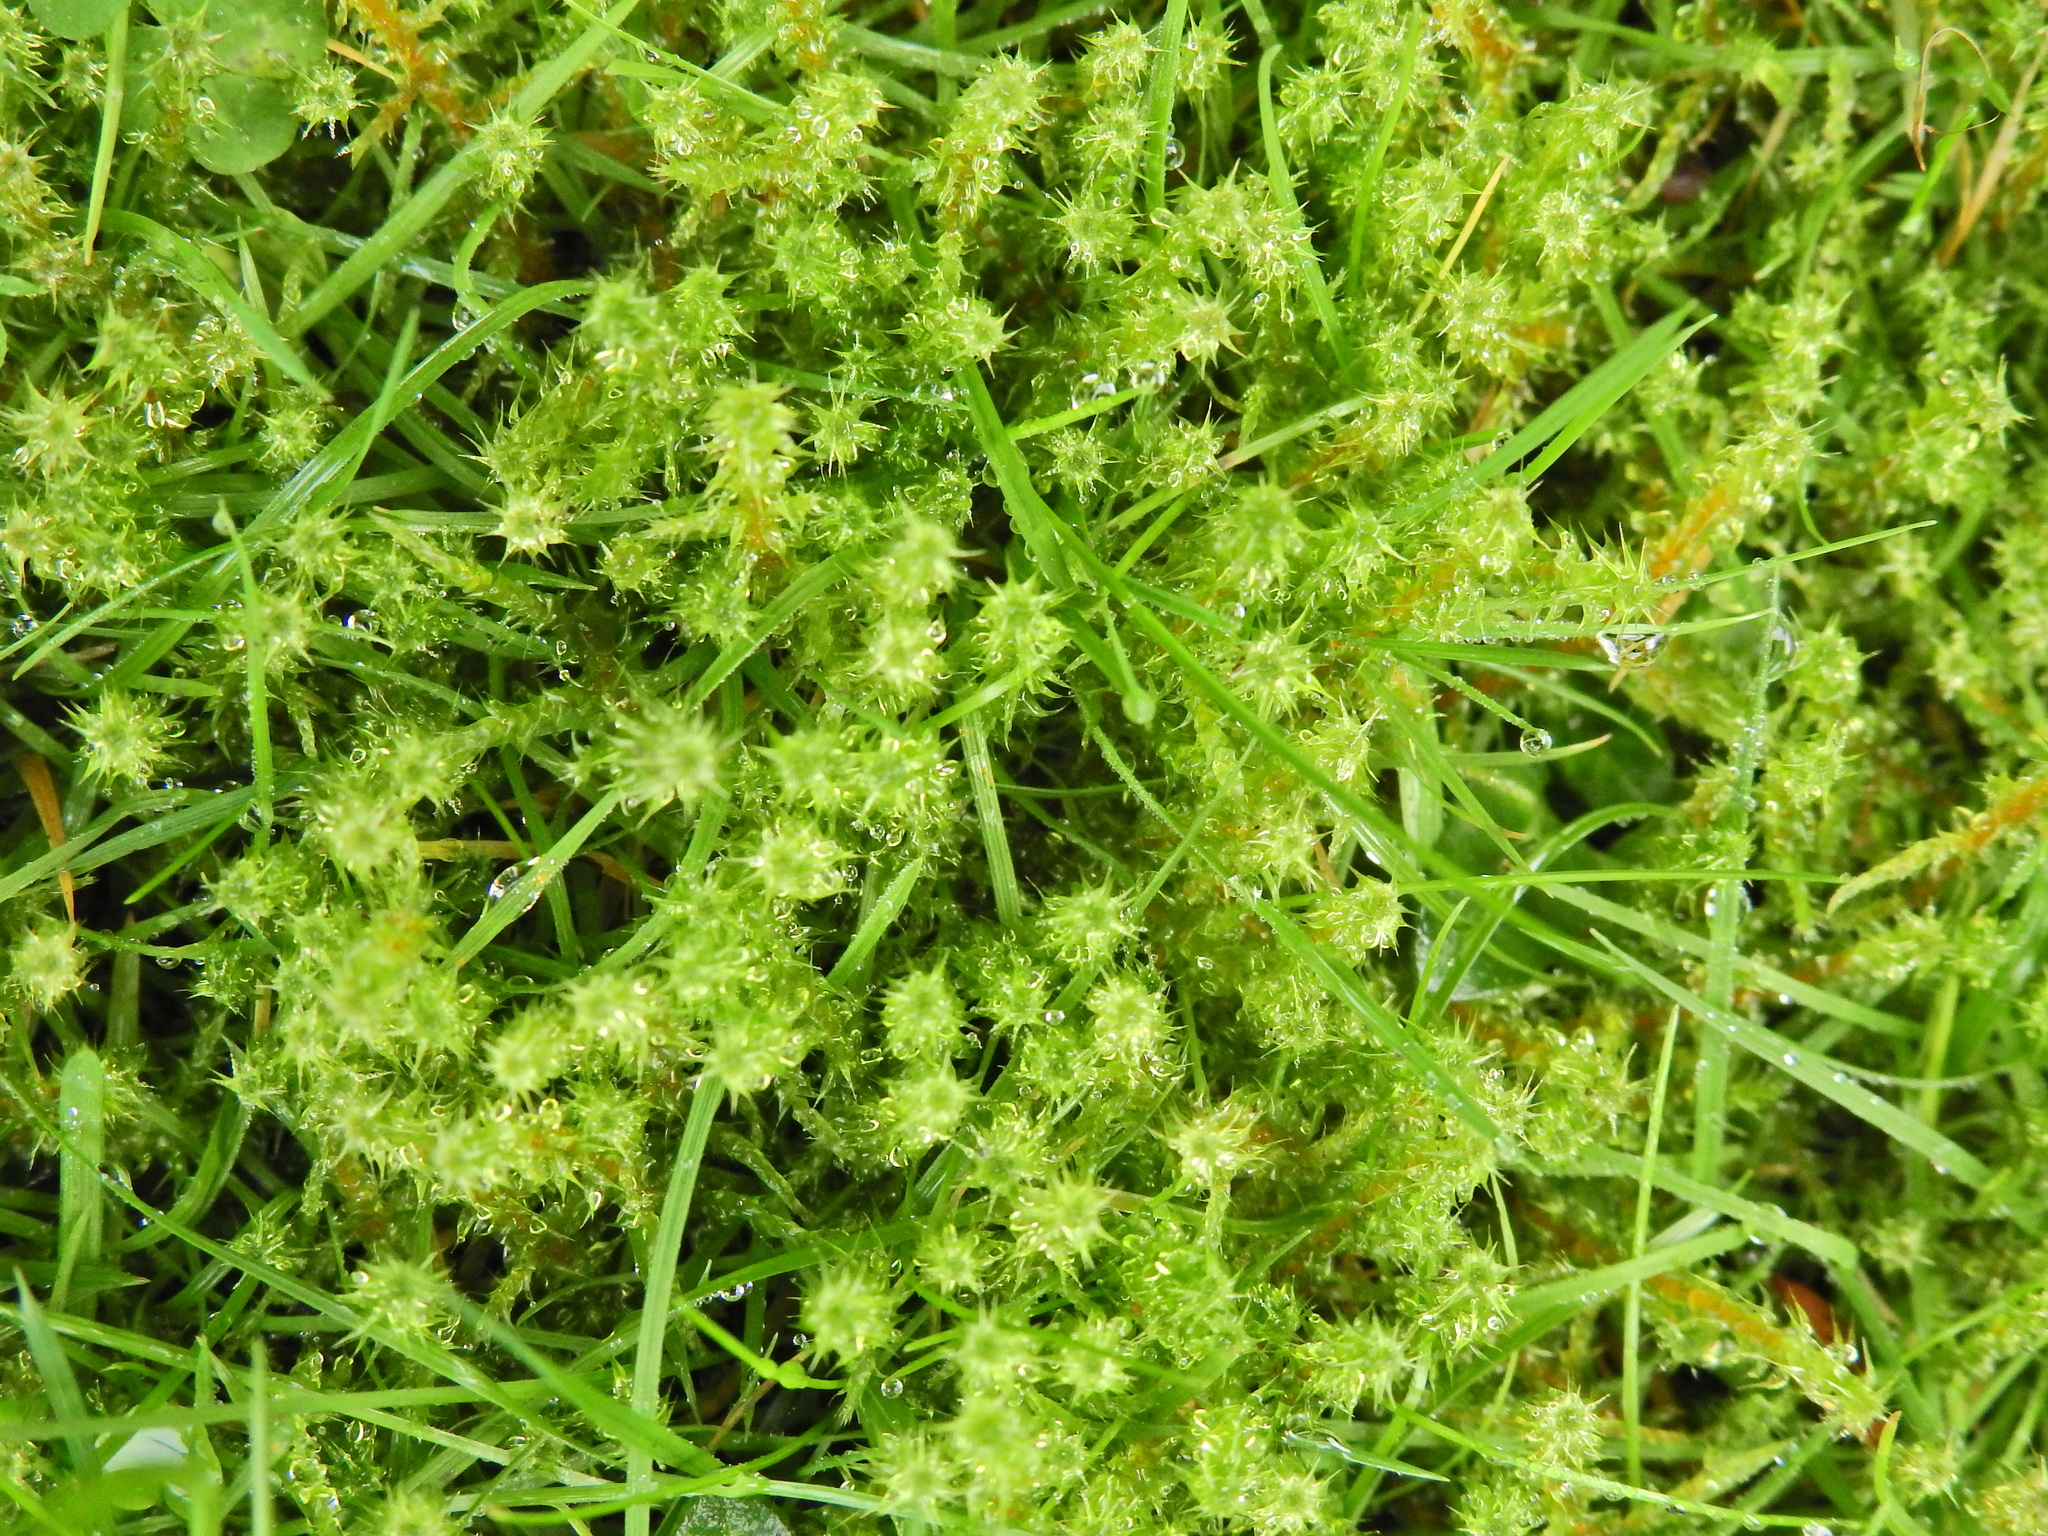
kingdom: Plantae
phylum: Bryophyta
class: Bryopsida
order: Hypnales
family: Hylocomiaceae
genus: Rhytidiadelphus
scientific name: Rhytidiadelphus squarrosus
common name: Springy turf-moss
